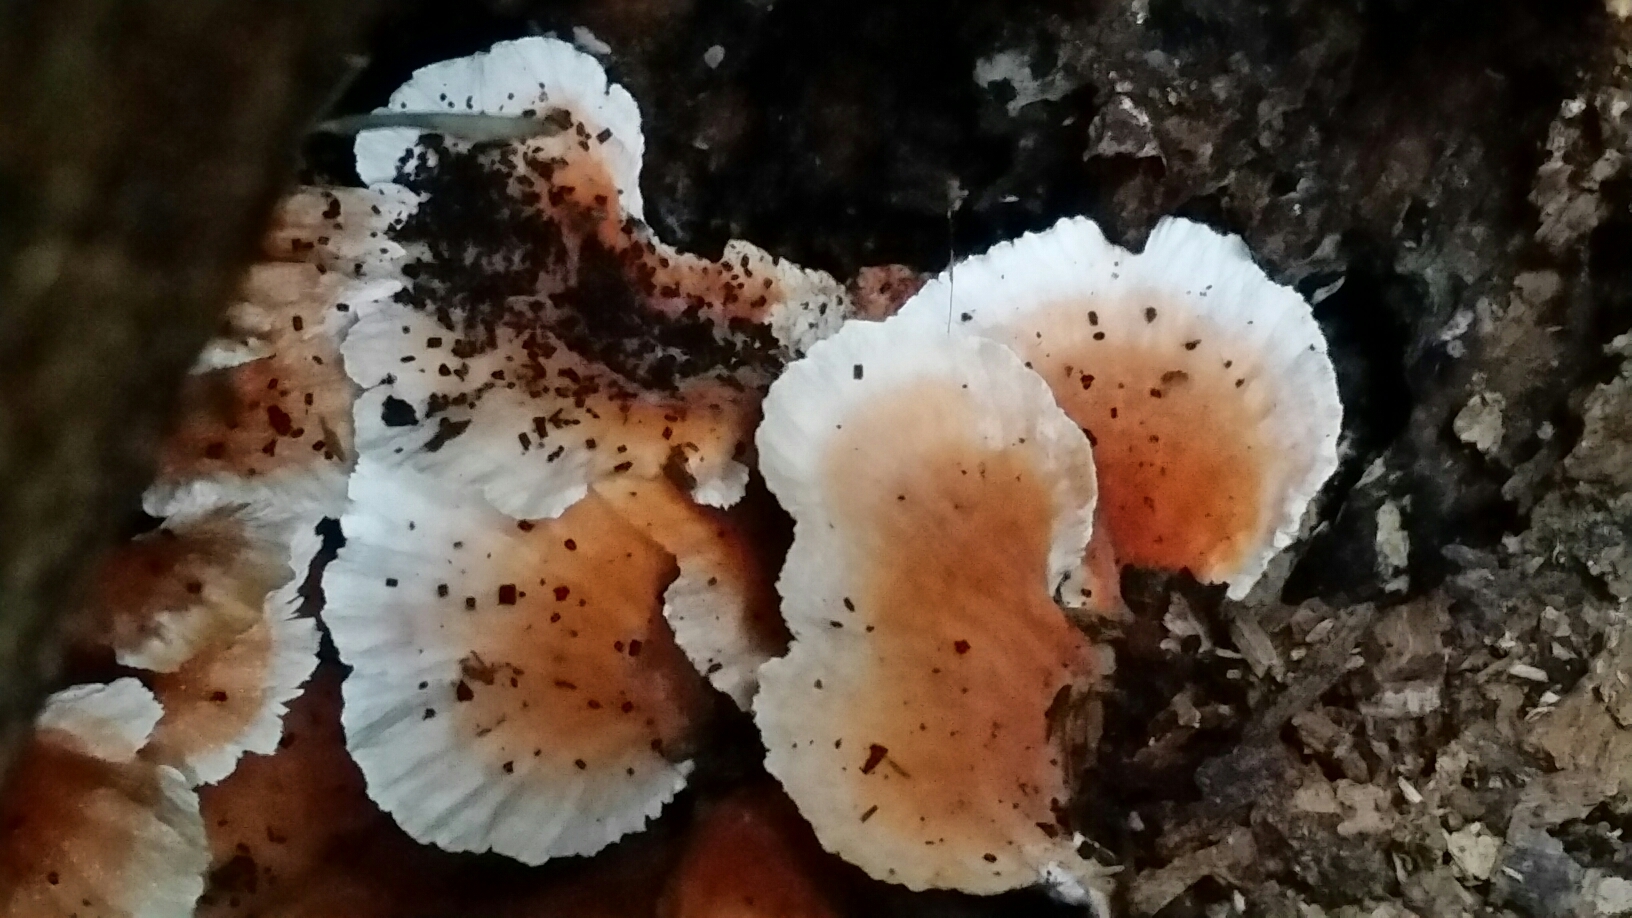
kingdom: Fungi
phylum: Basidiomycota
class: Agaricomycetes
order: Polyporales
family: Podoscyphaceae
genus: Abortiporus
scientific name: Abortiporus biennis
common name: Blushing rosette
